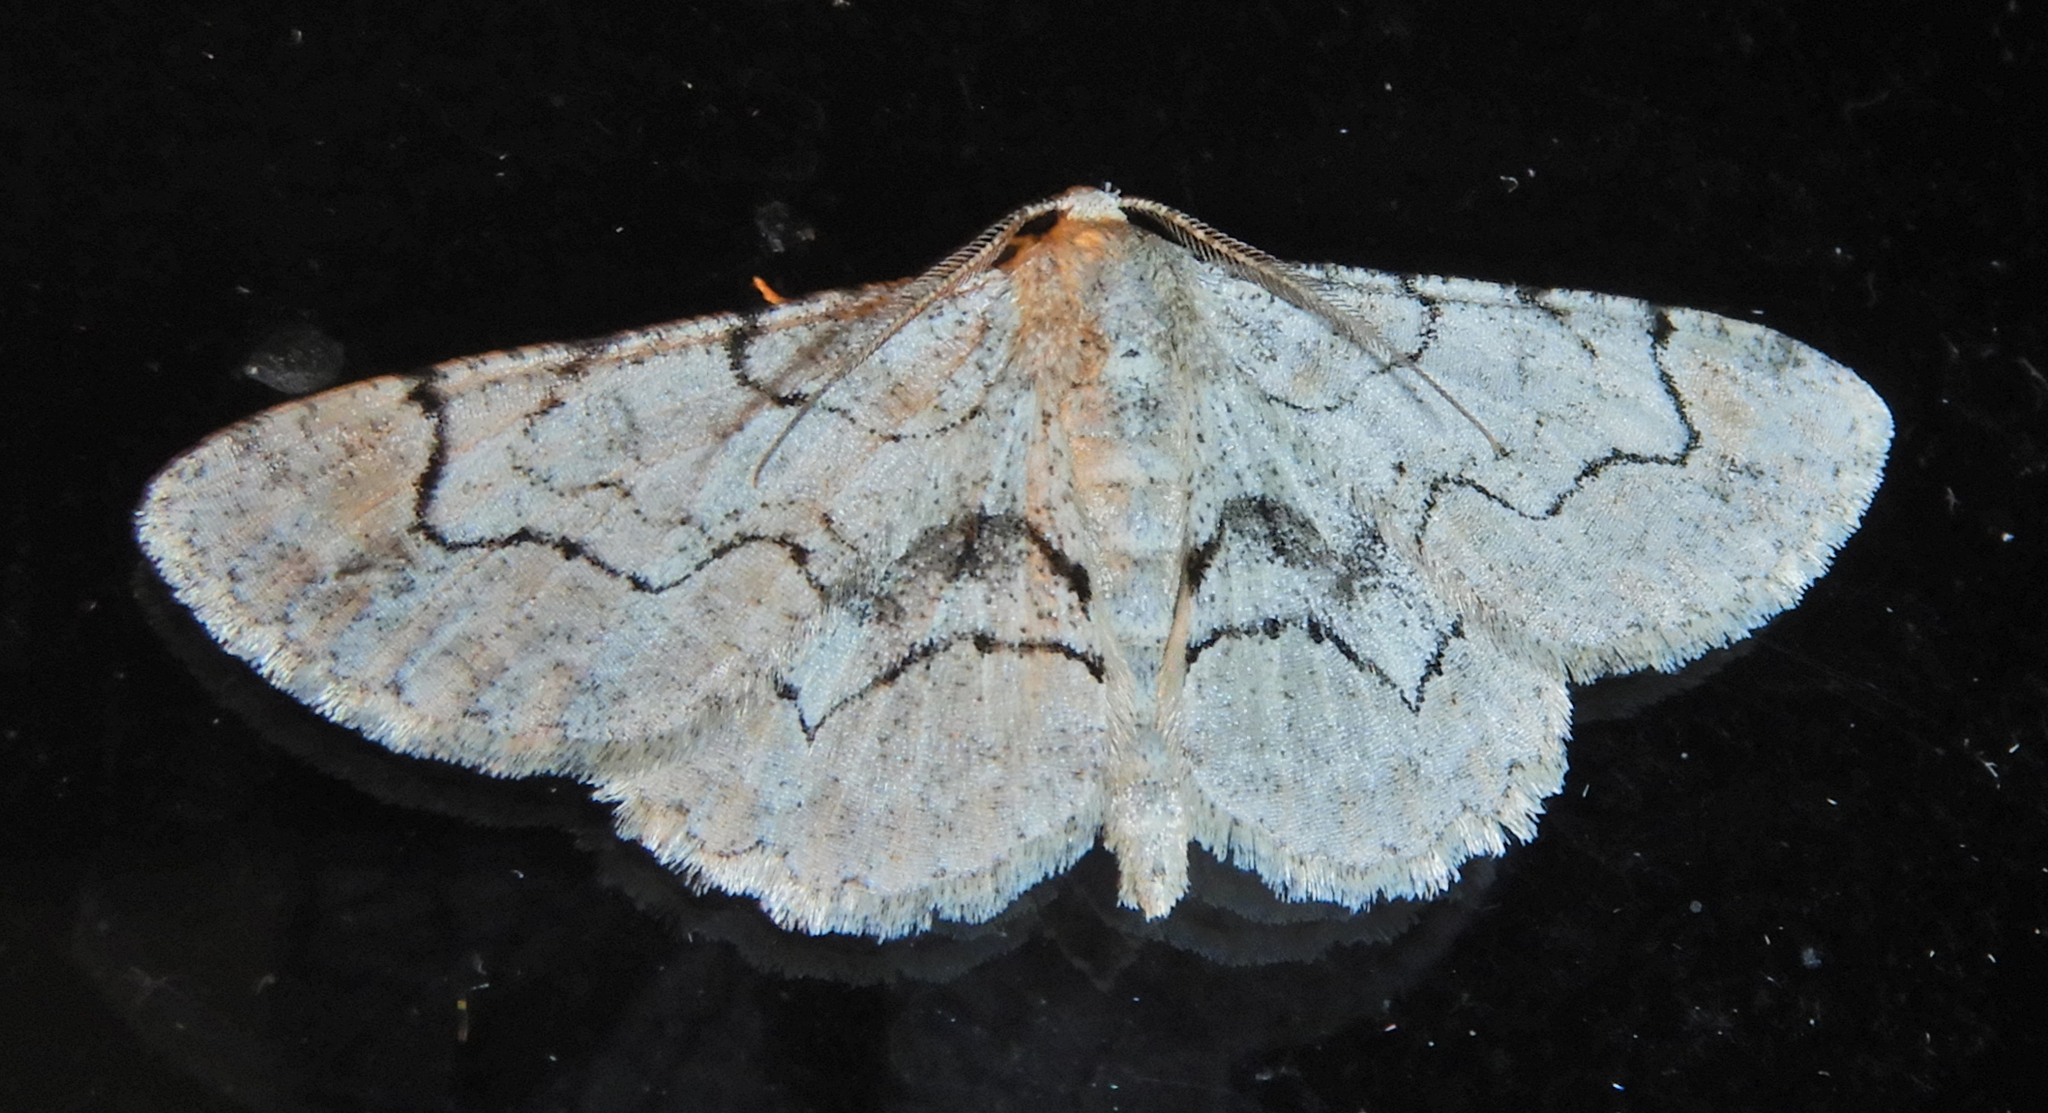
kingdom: Animalia
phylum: Arthropoda
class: Insecta
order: Lepidoptera
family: Geometridae
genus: Iridopsis
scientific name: Iridopsis larvaria
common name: Bent-line gray
